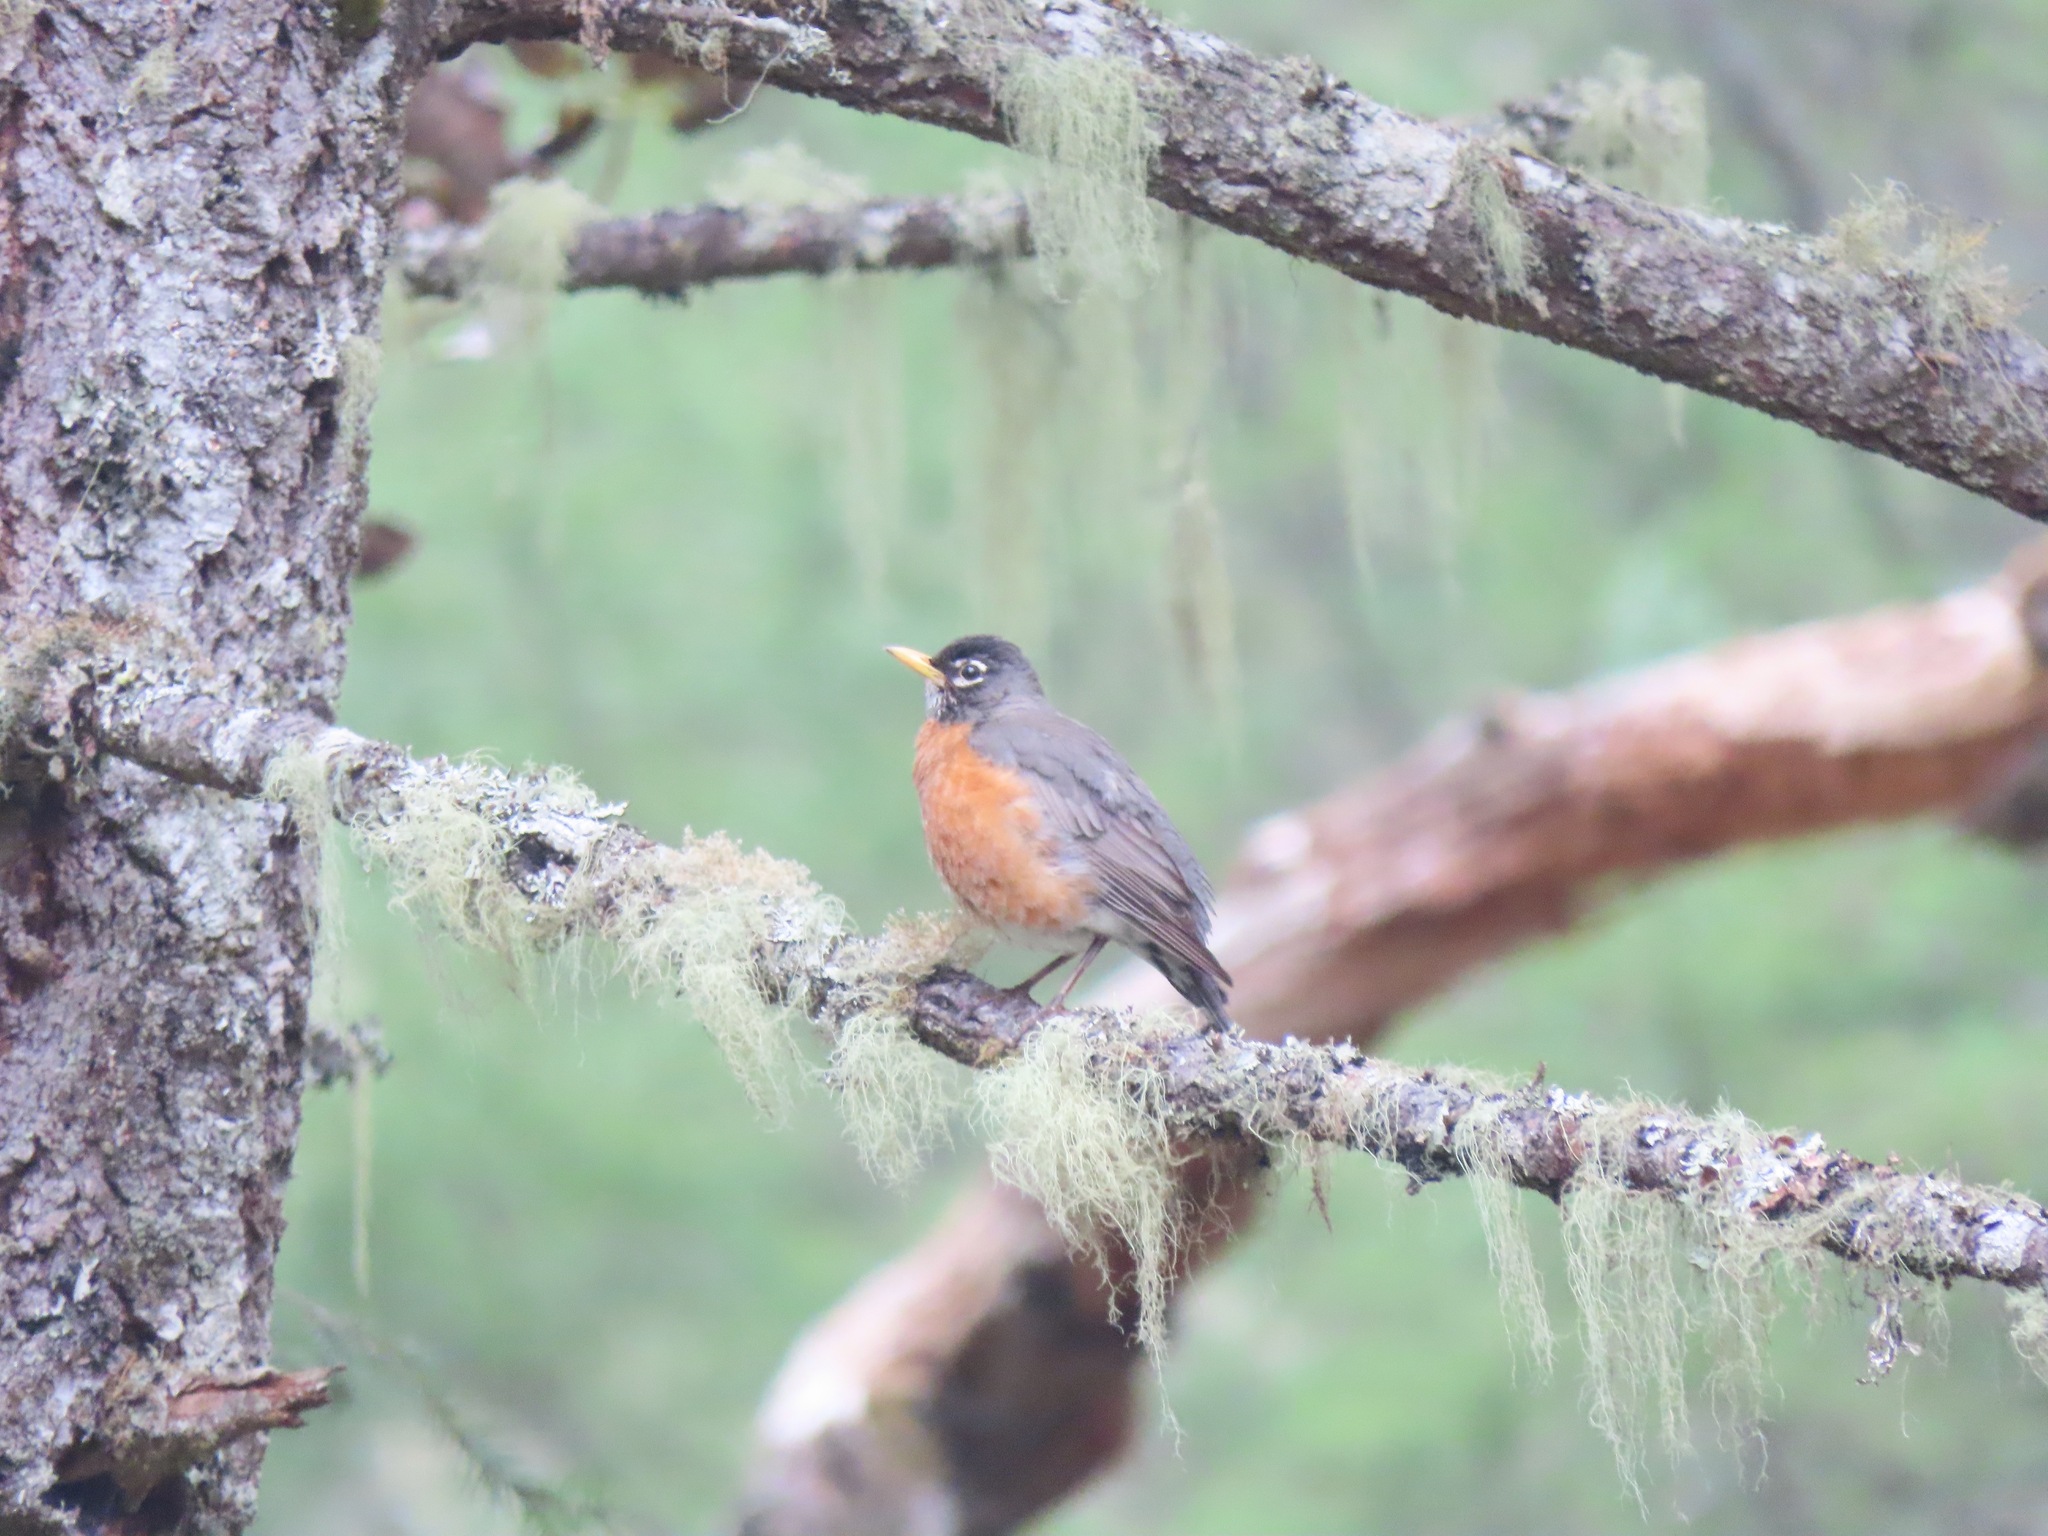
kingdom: Animalia
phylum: Chordata
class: Aves
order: Passeriformes
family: Turdidae
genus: Turdus
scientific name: Turdus migratorius
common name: American robin
